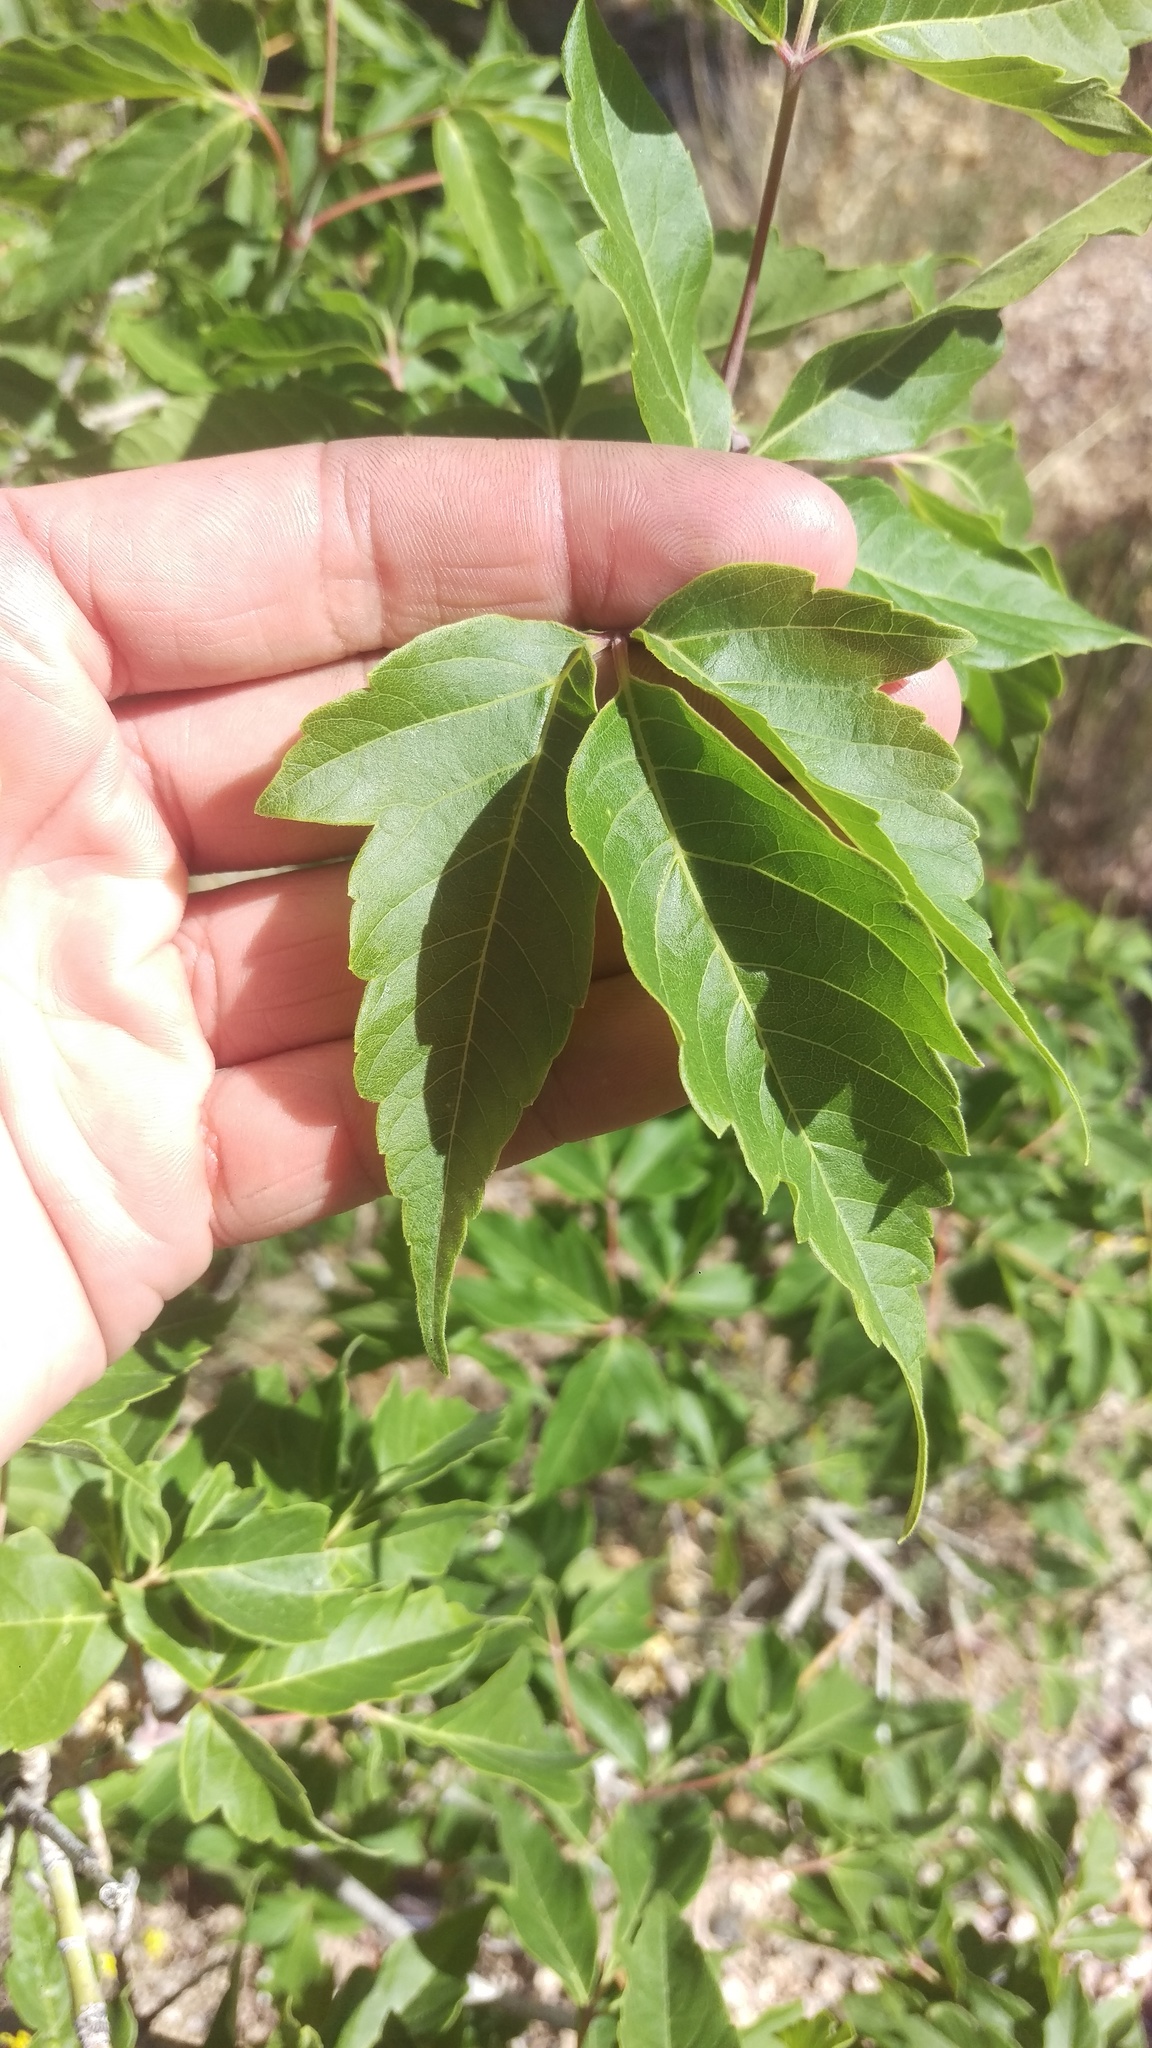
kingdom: Plantae
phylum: Tracheophyta
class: Magnoliopsida
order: Sapindales
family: Sapindaceae
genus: Acer
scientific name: Acer negundo
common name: Ashleaf maple
